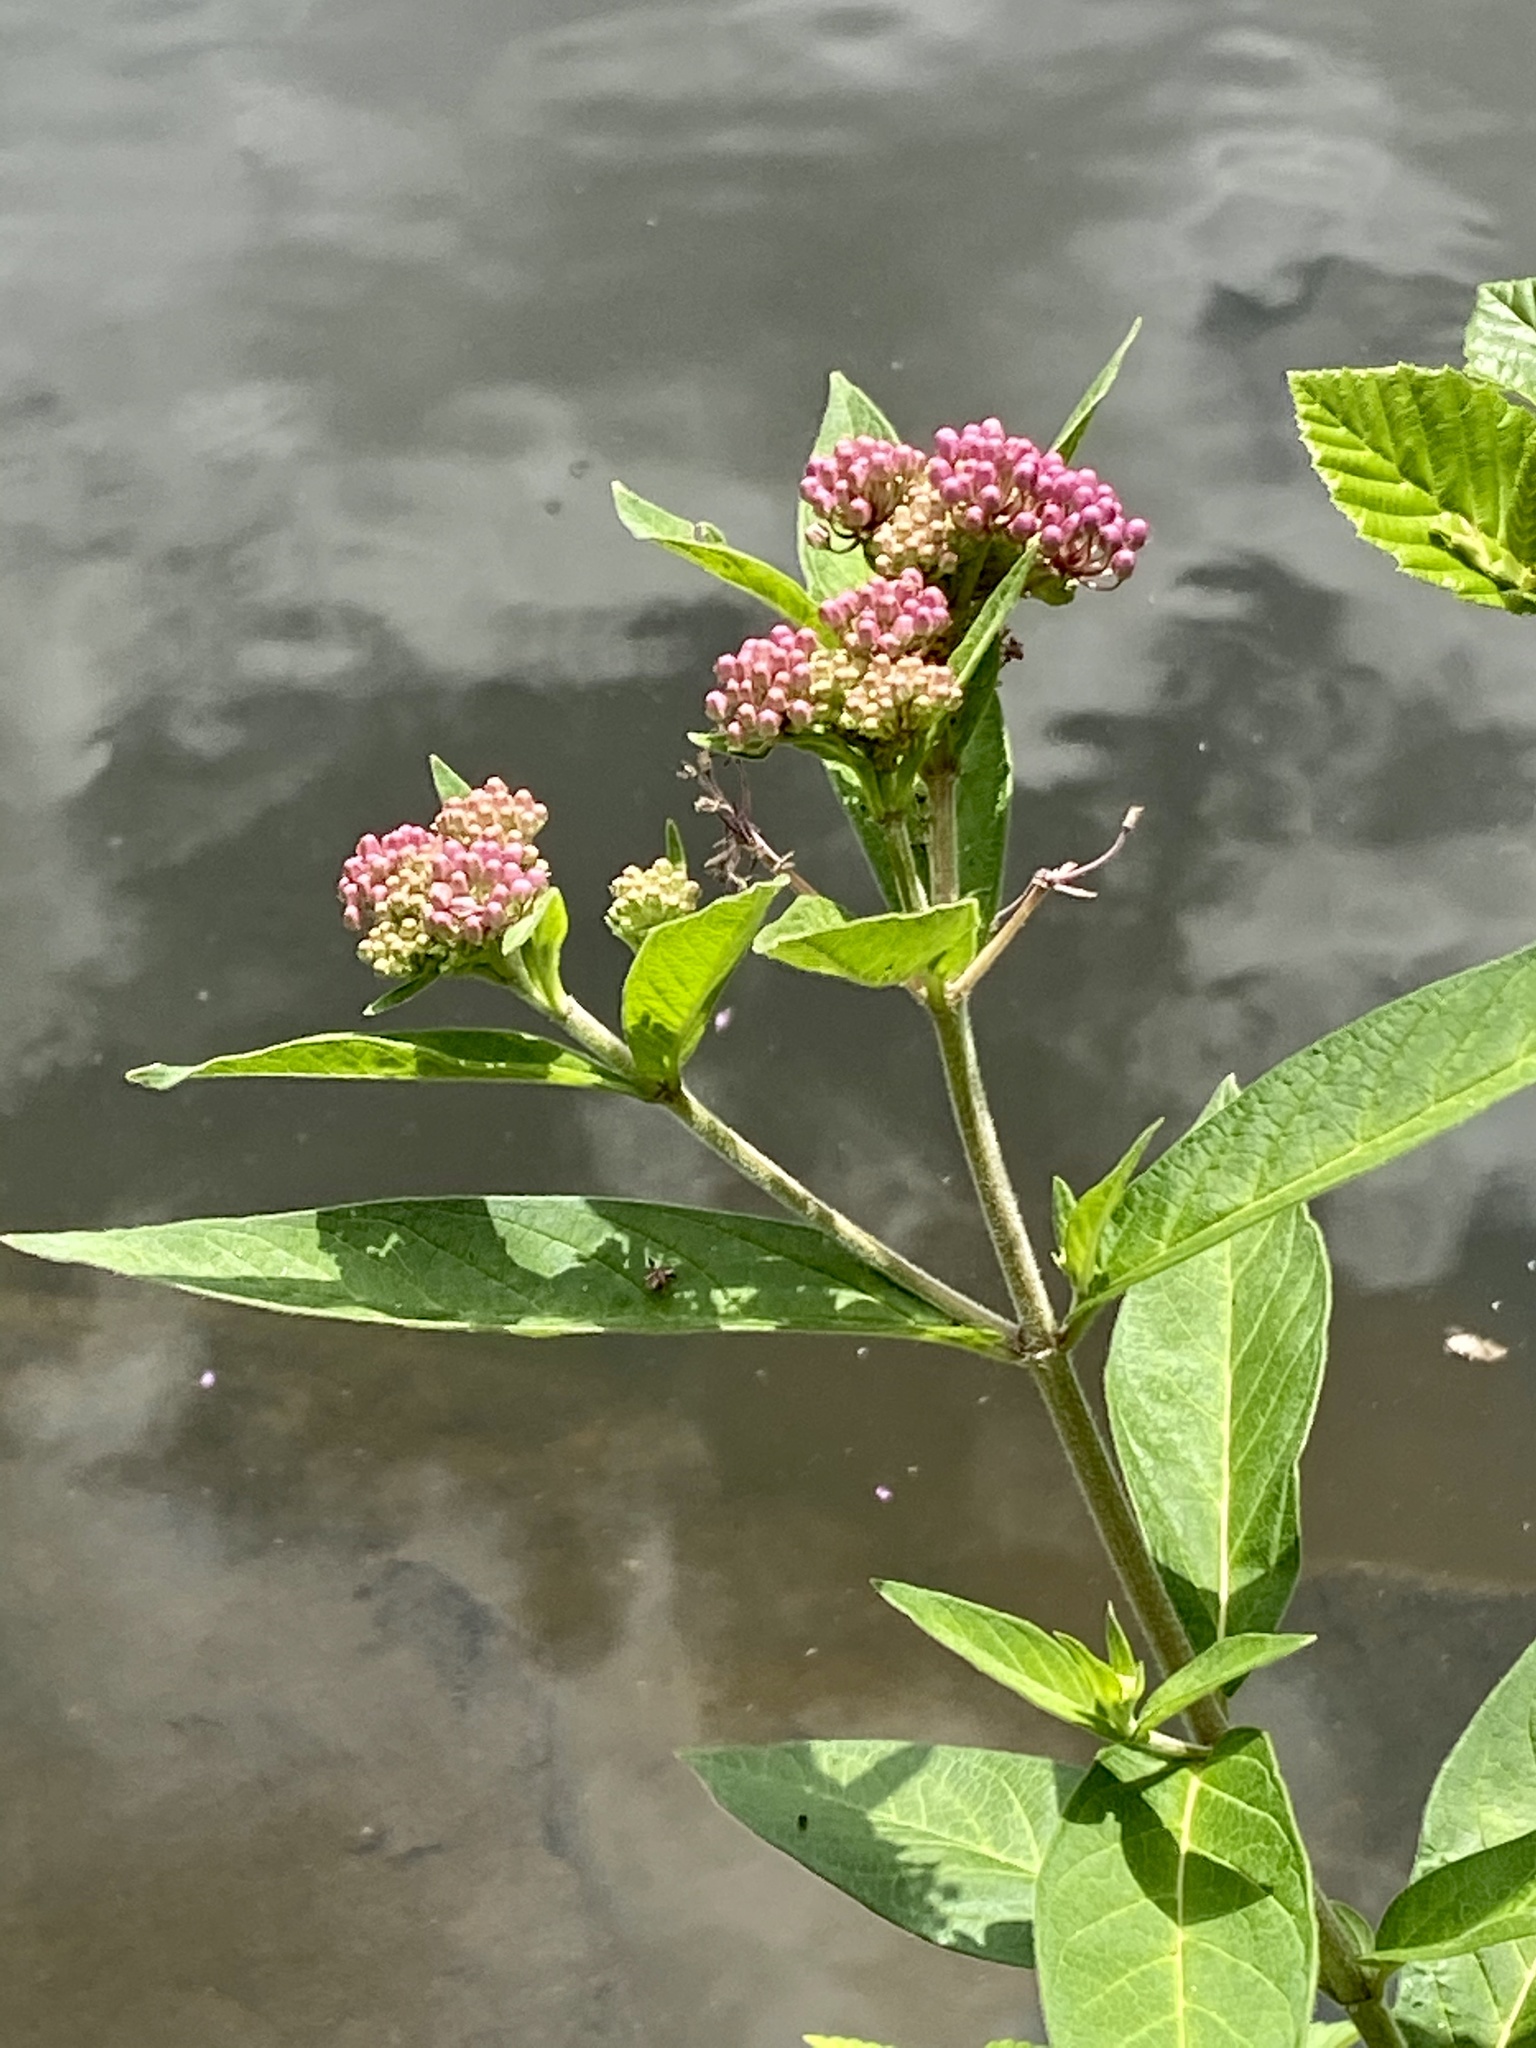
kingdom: Plantae
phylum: Tracheophyta
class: Magnoliopsida
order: Gentianales
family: Apocynaceae
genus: Asclepias
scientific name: Asclepias incarnata
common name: Swamp milkweed
